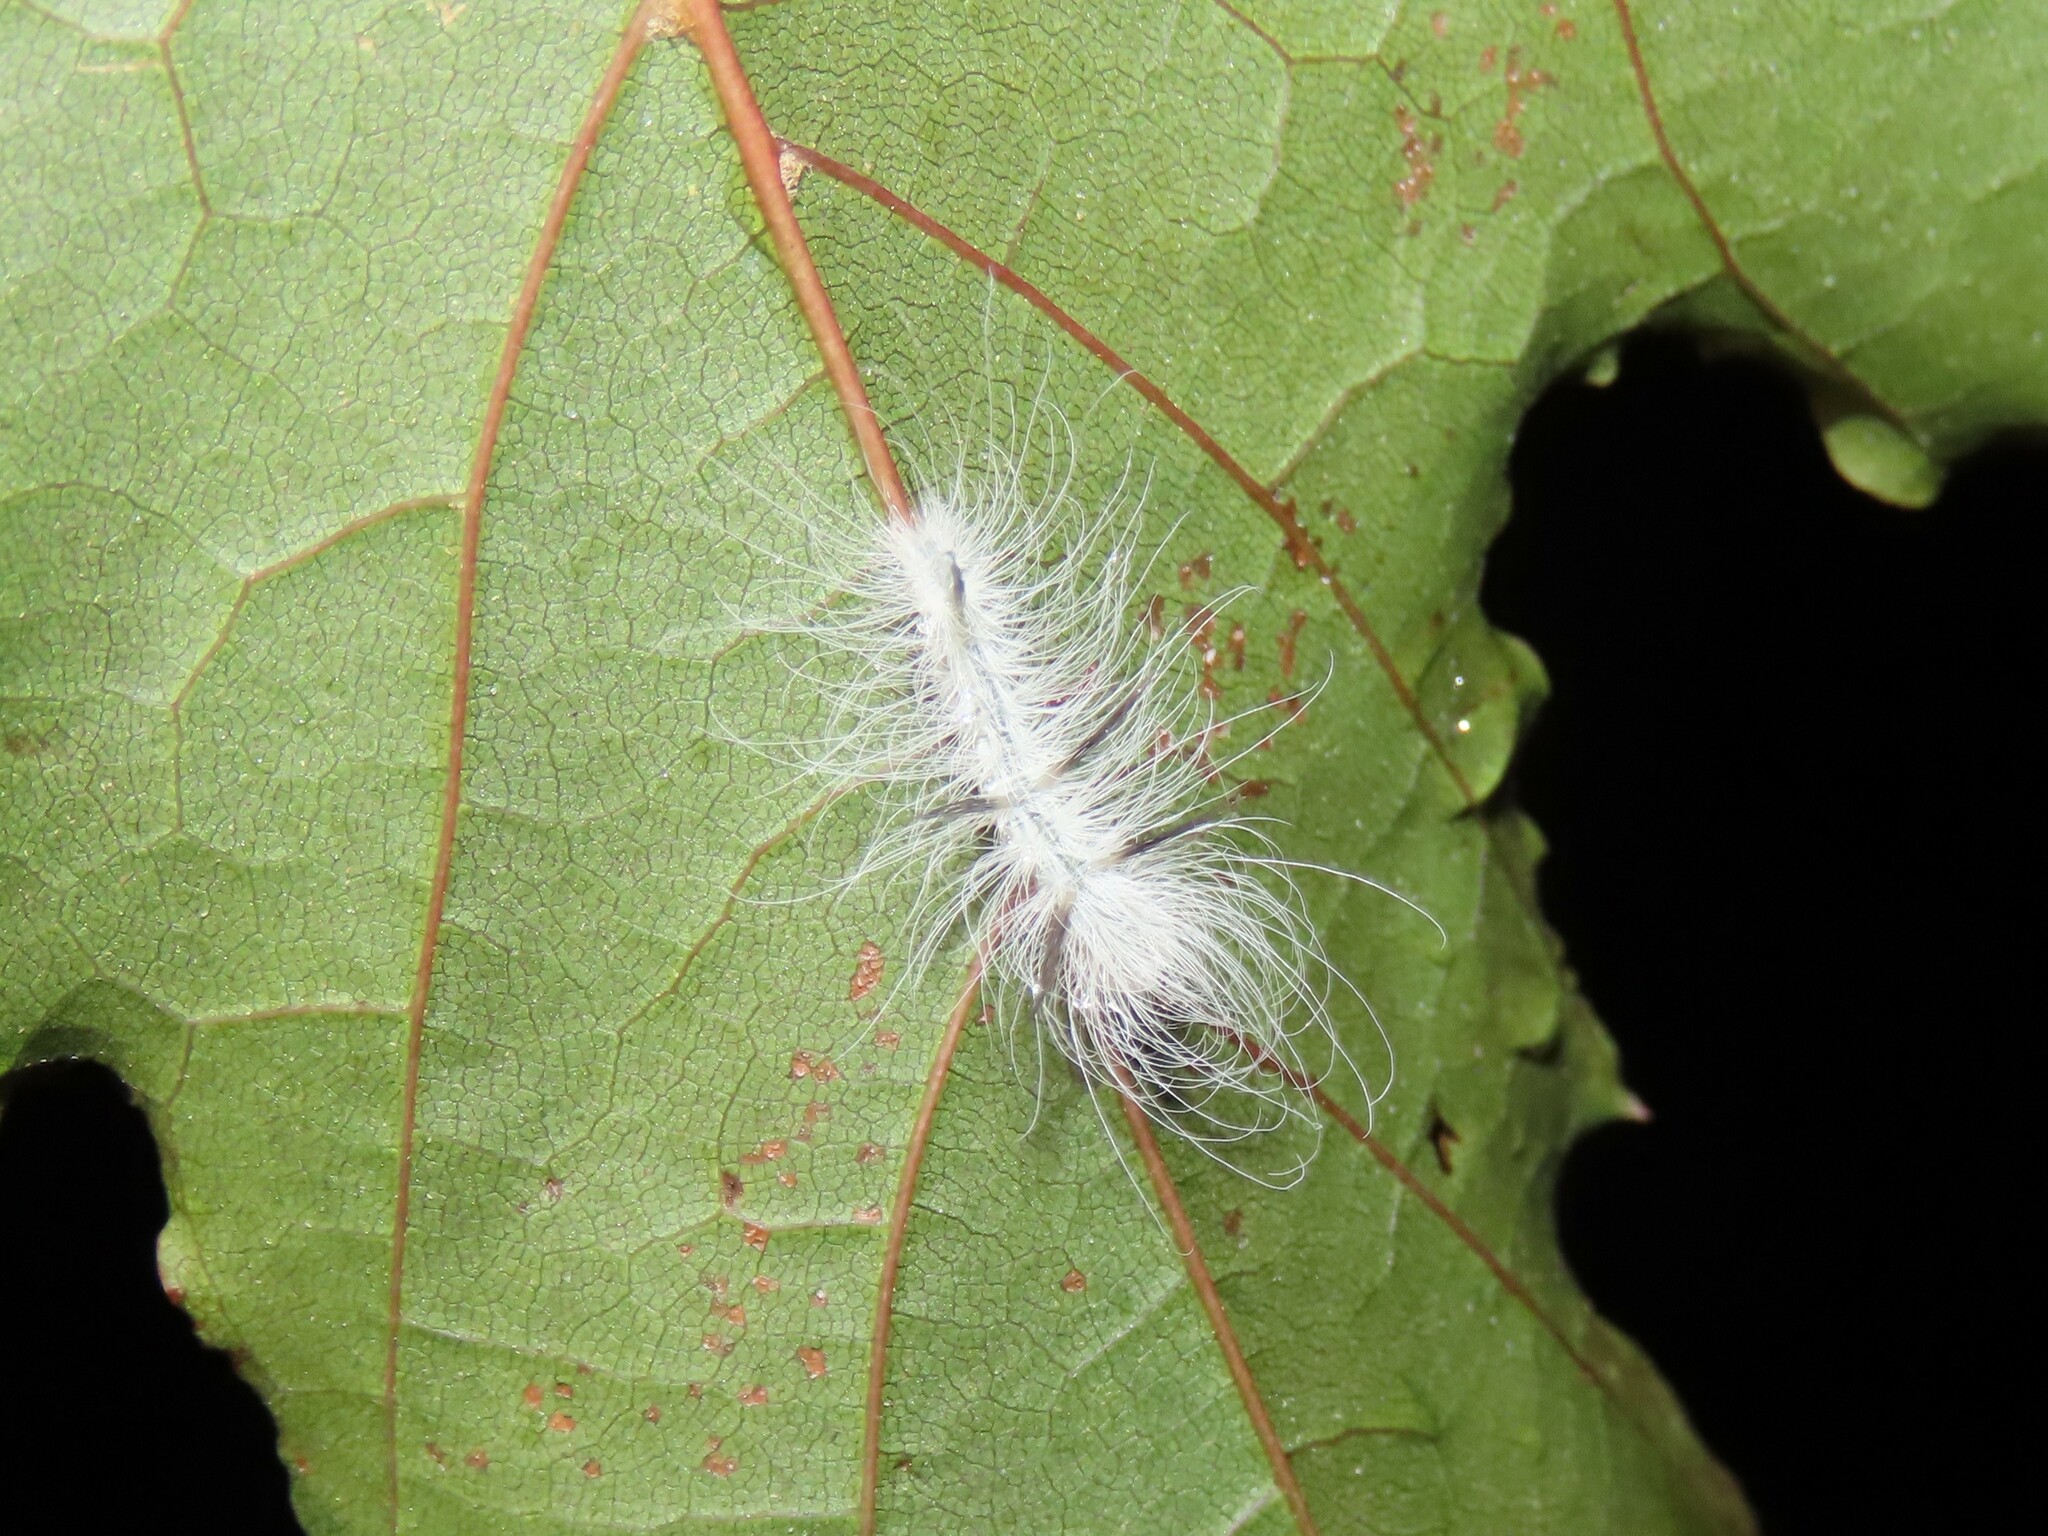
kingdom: Animalia
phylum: Arthropoda
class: Insecta
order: Lepidoptera
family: Noctuidae
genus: Acronicta
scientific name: Acronicta americana
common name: American dagger
